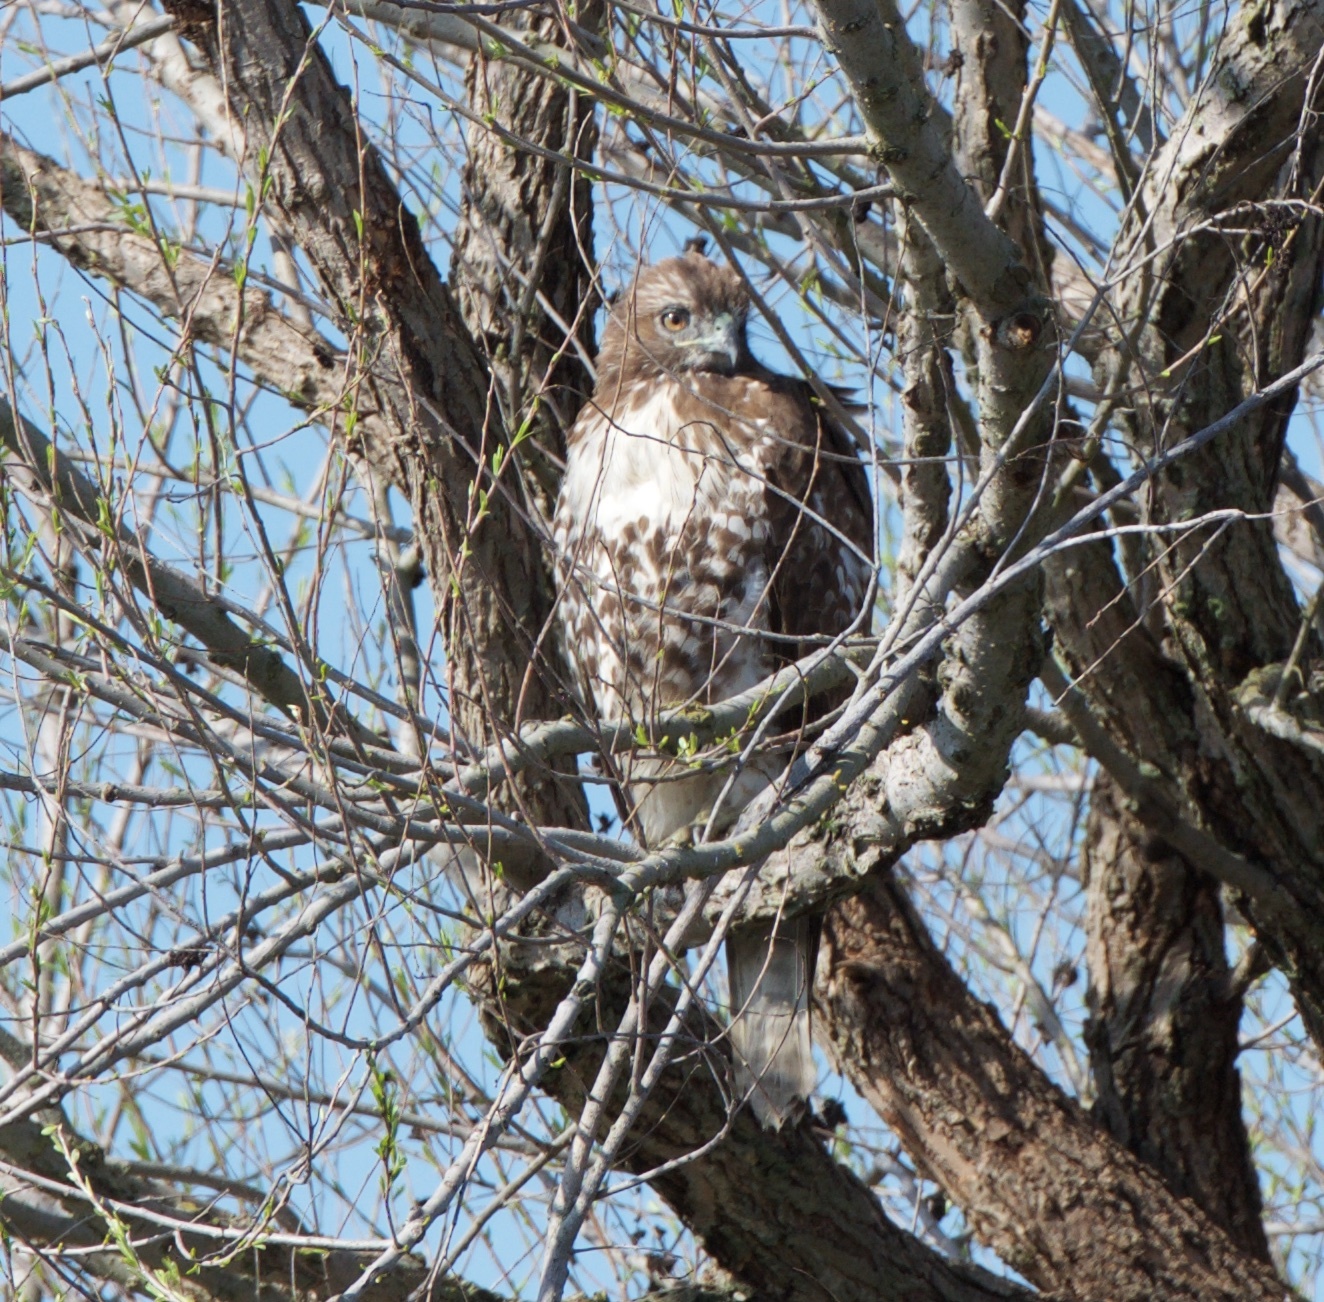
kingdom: Animalia
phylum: Chordata
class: Aves
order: Accipitriformes
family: Accipitridae
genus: Buteo
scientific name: Buteo jamaicensis
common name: Red-tailed hawk
